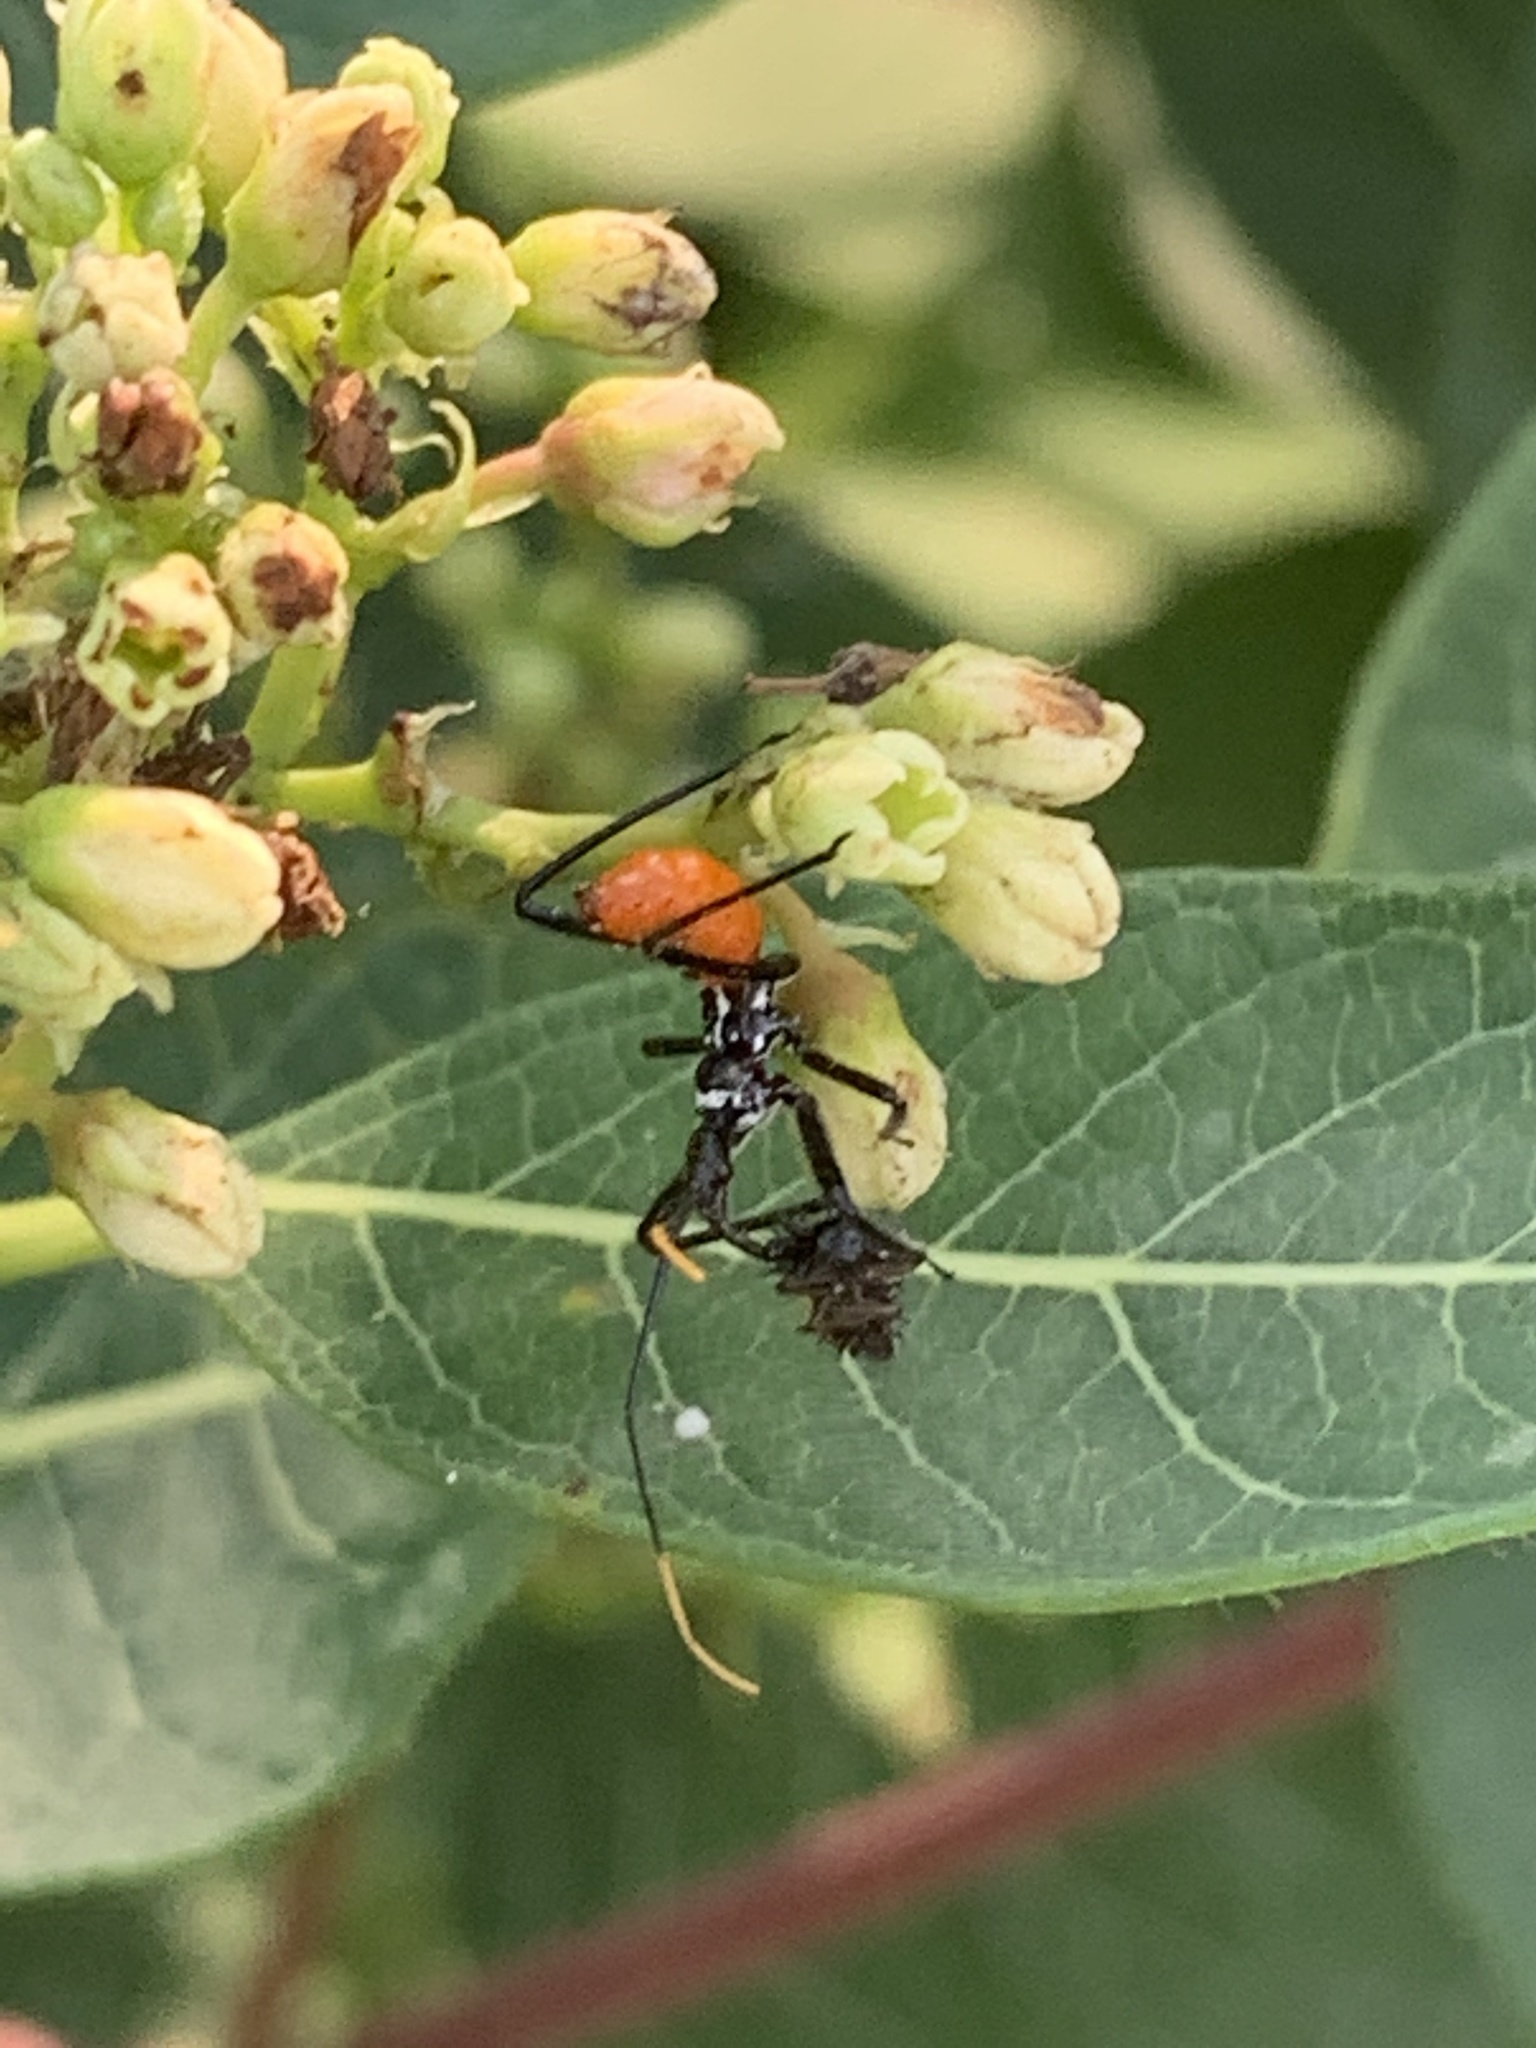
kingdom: Animalia
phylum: Arthropoda
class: Insecta
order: Hemiptera
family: Reduviidae
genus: Arilus
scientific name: Arilus cristatus
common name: North american wheel bug
